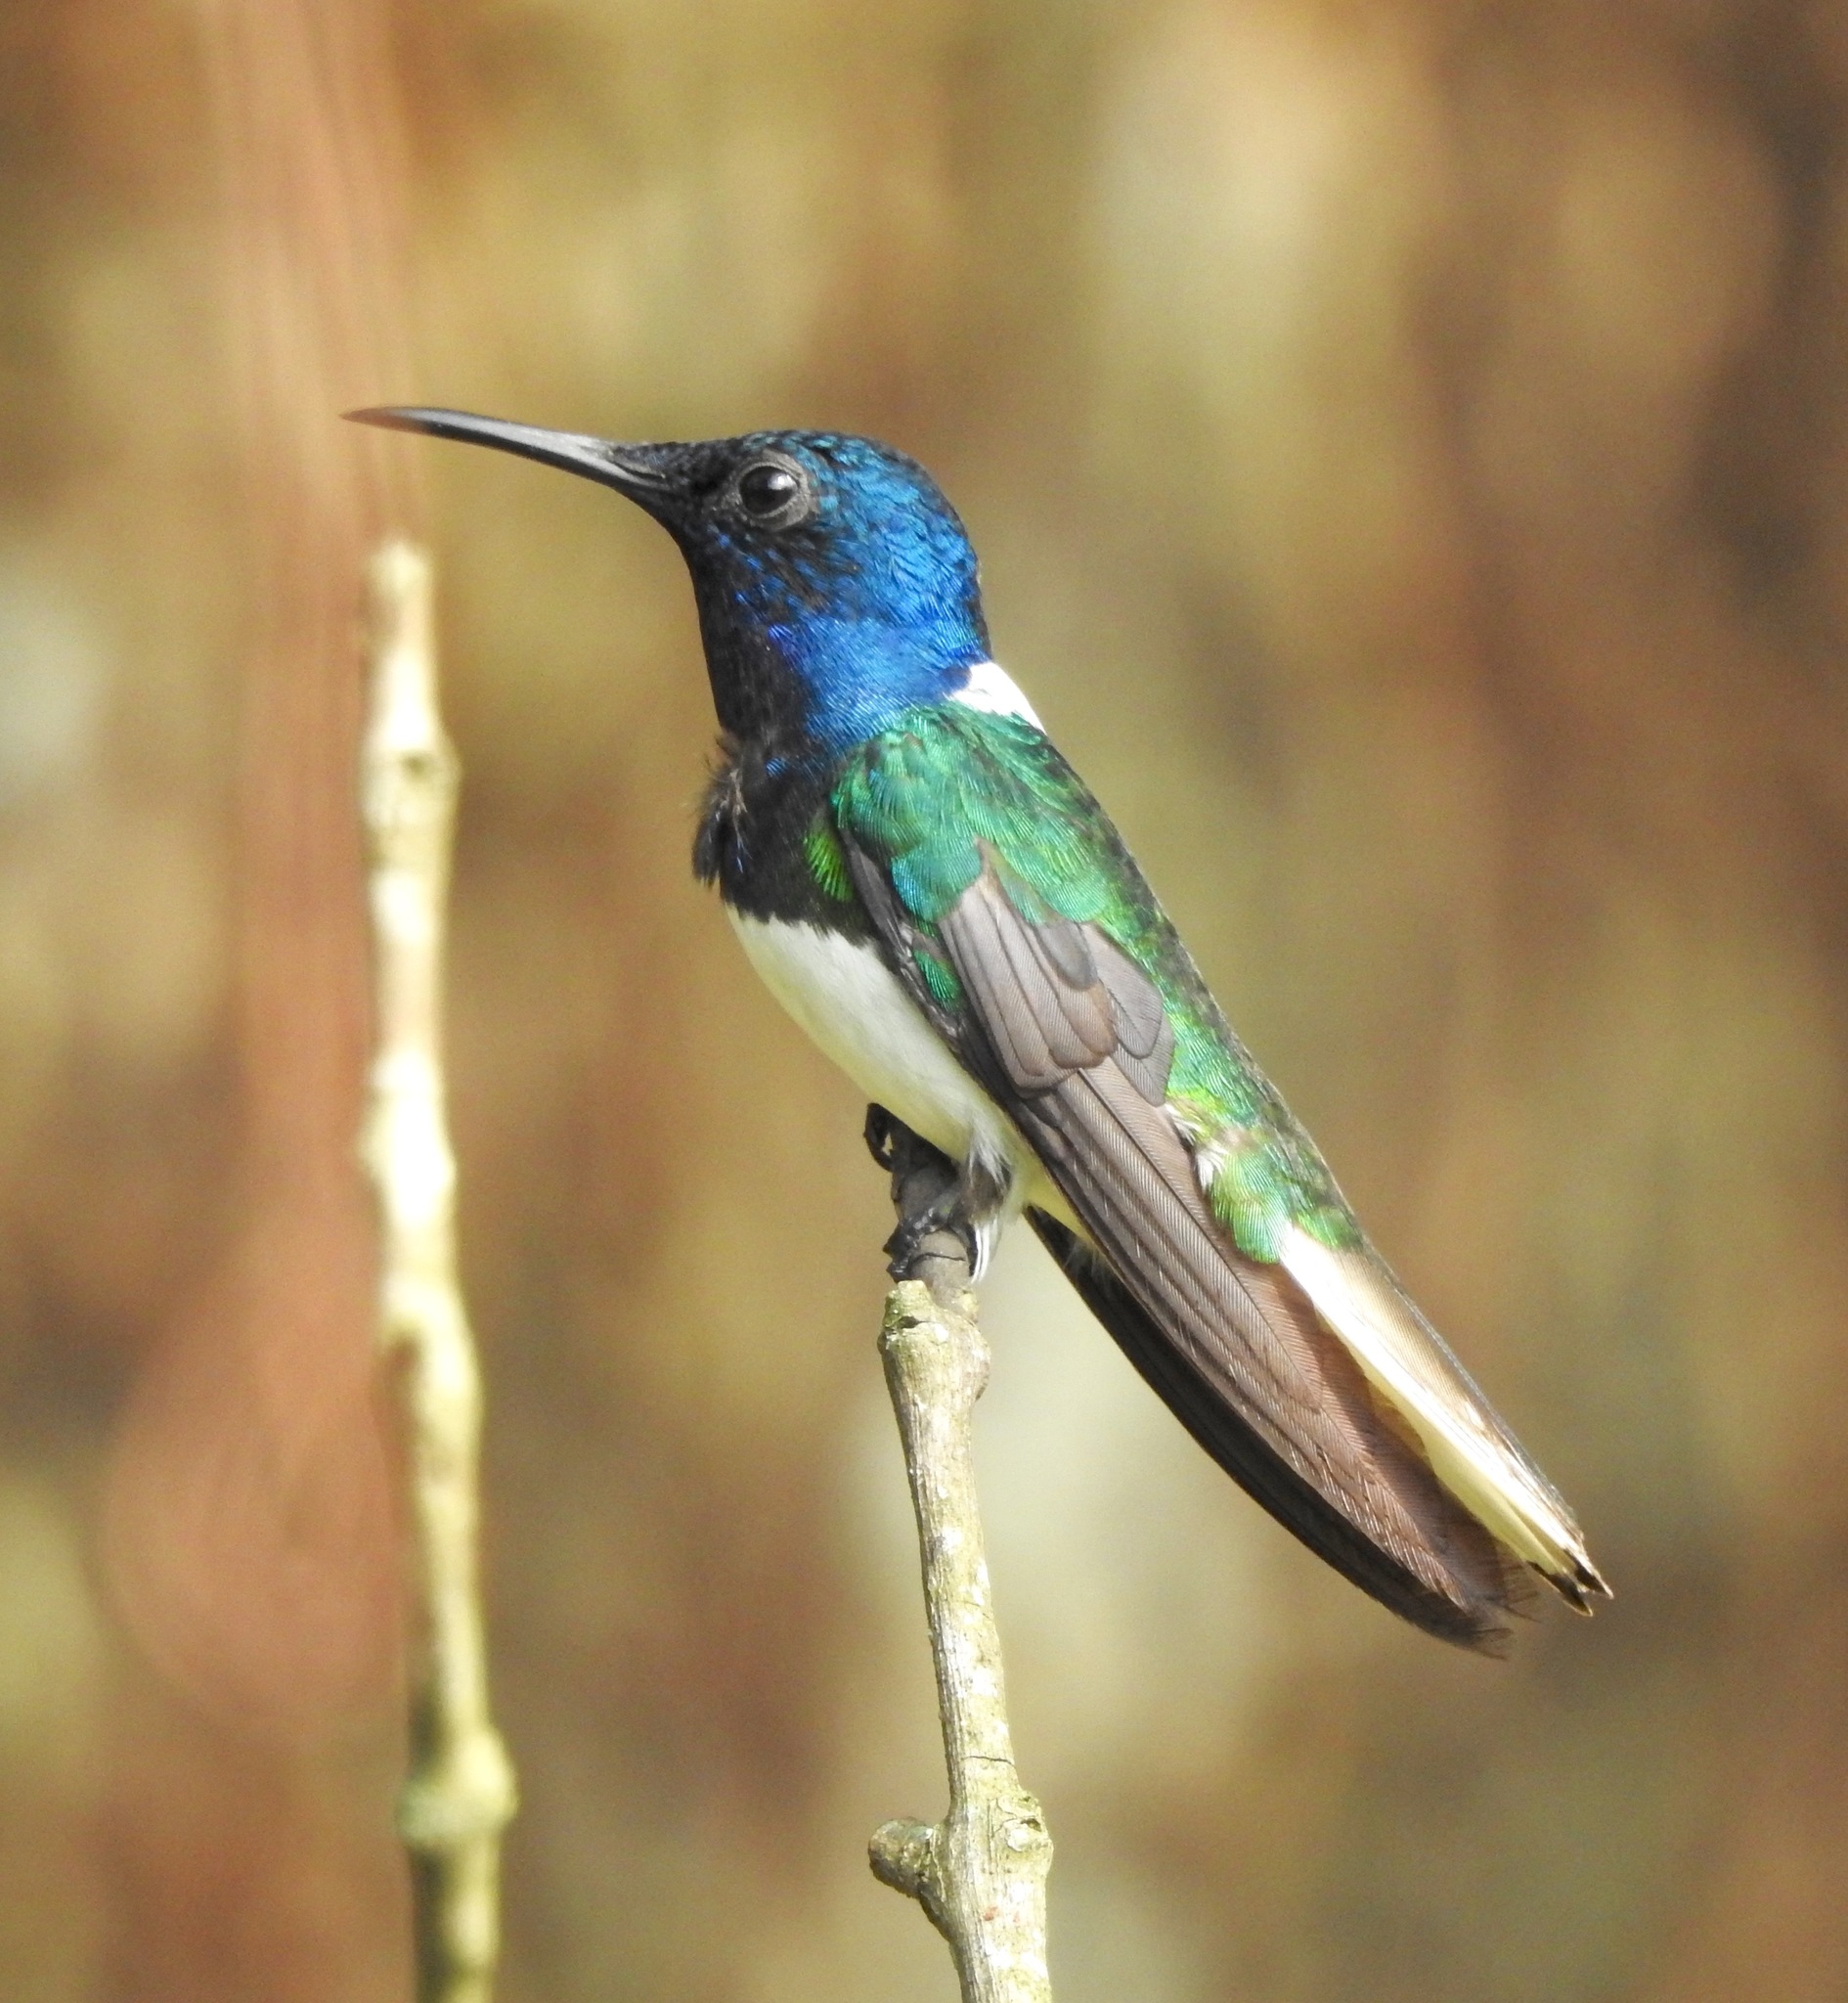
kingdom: Animalia
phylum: Chordata
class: Aves
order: Apodiformes
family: Trochilidae
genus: Florisuga
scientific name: Florisuga mellivora
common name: White-necked jacobin
